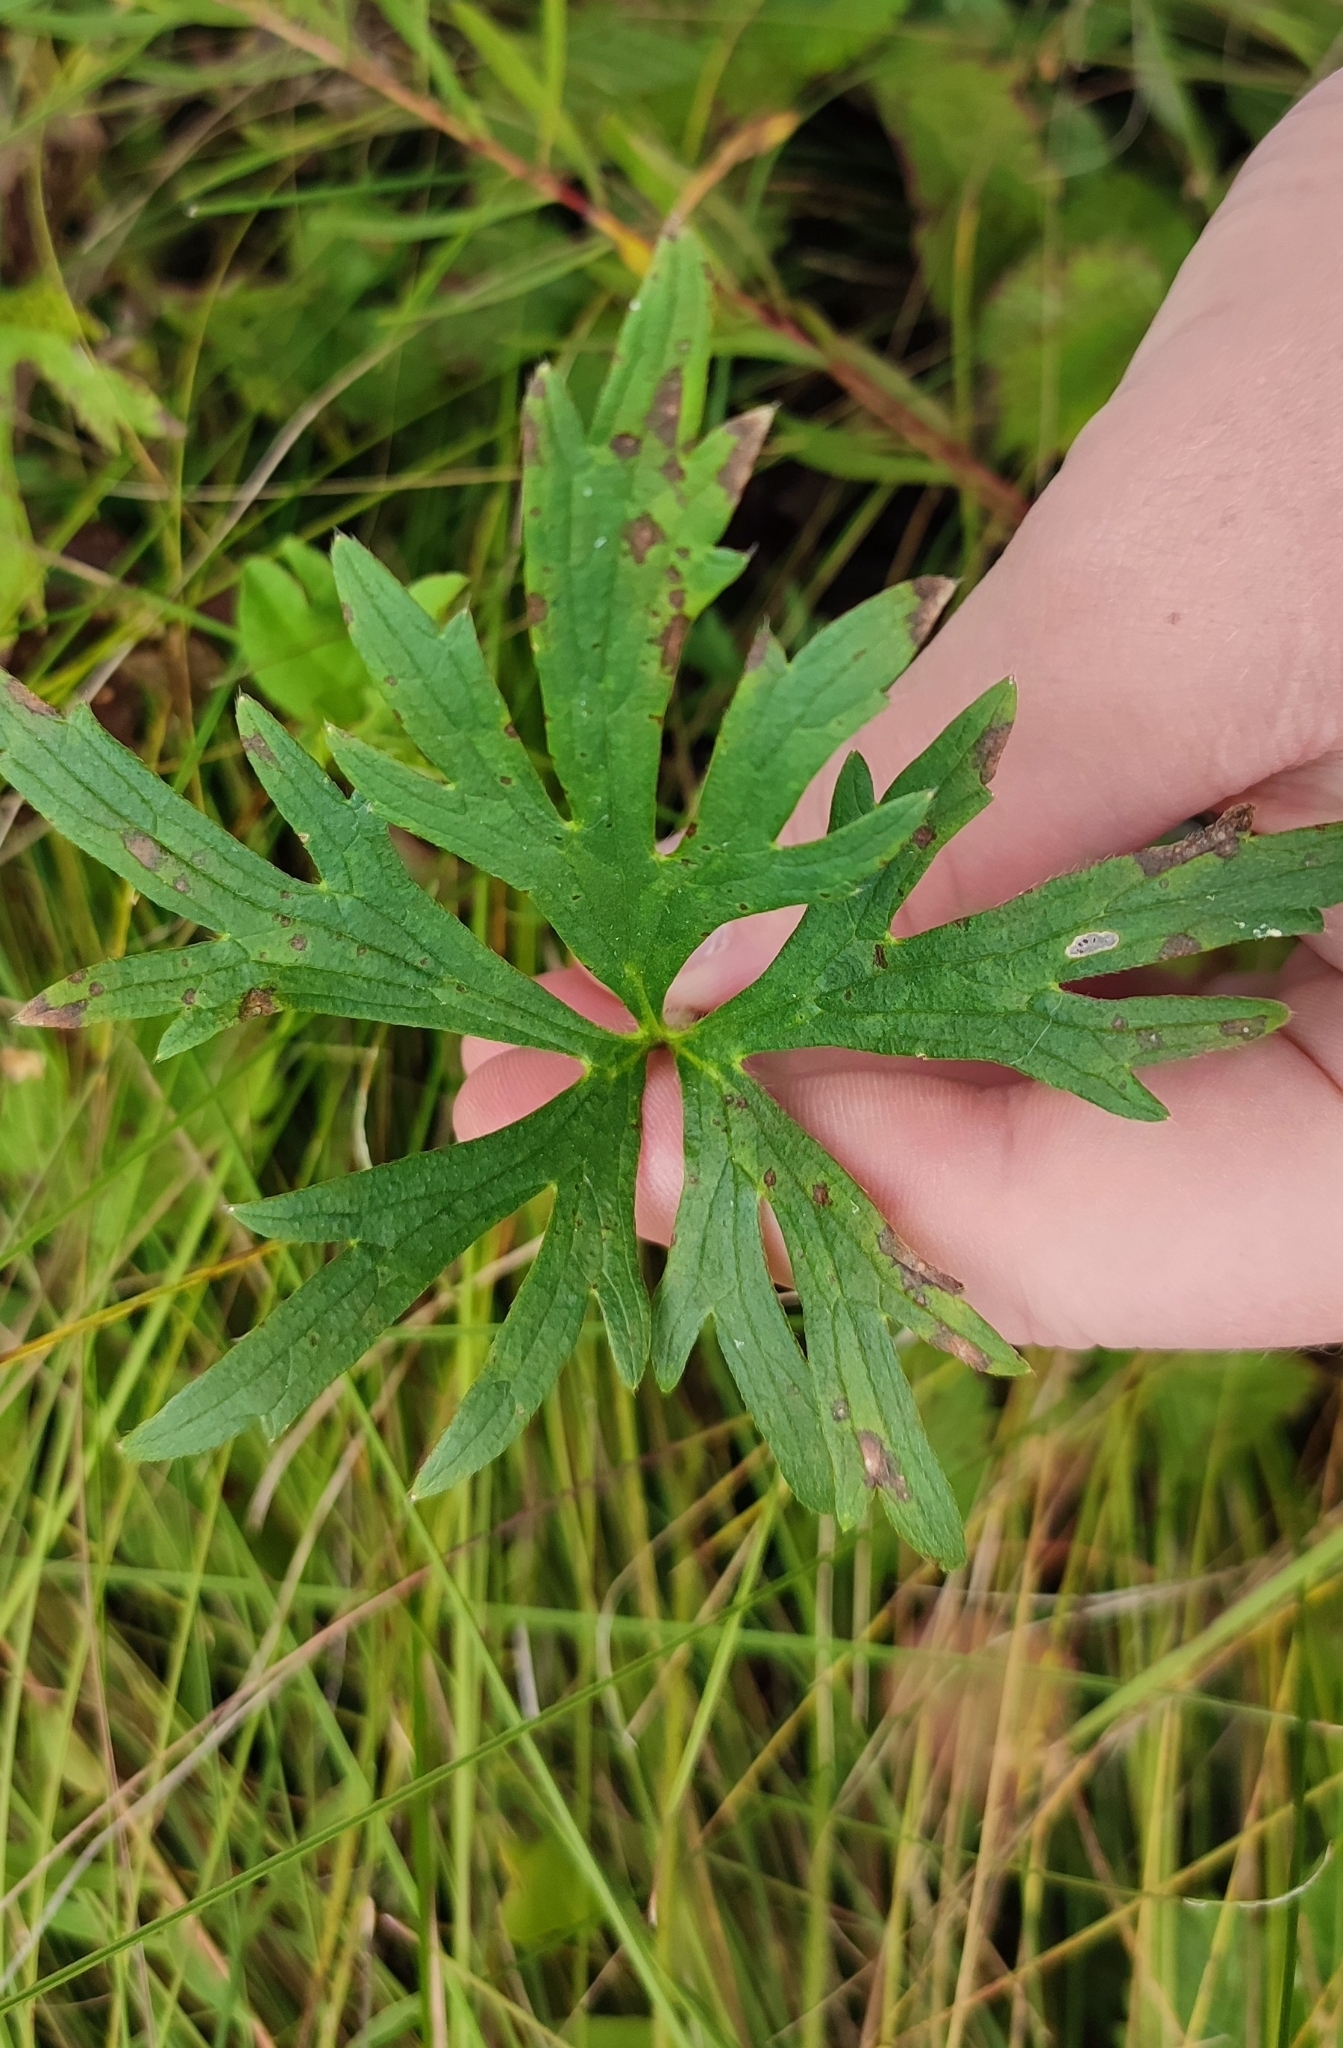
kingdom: Plantae
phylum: Tracheophyta
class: Magnoliopsida
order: Ranunculales
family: Ranunculaceae
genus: Ranunculus
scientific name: Ranunculus polyanthemos
